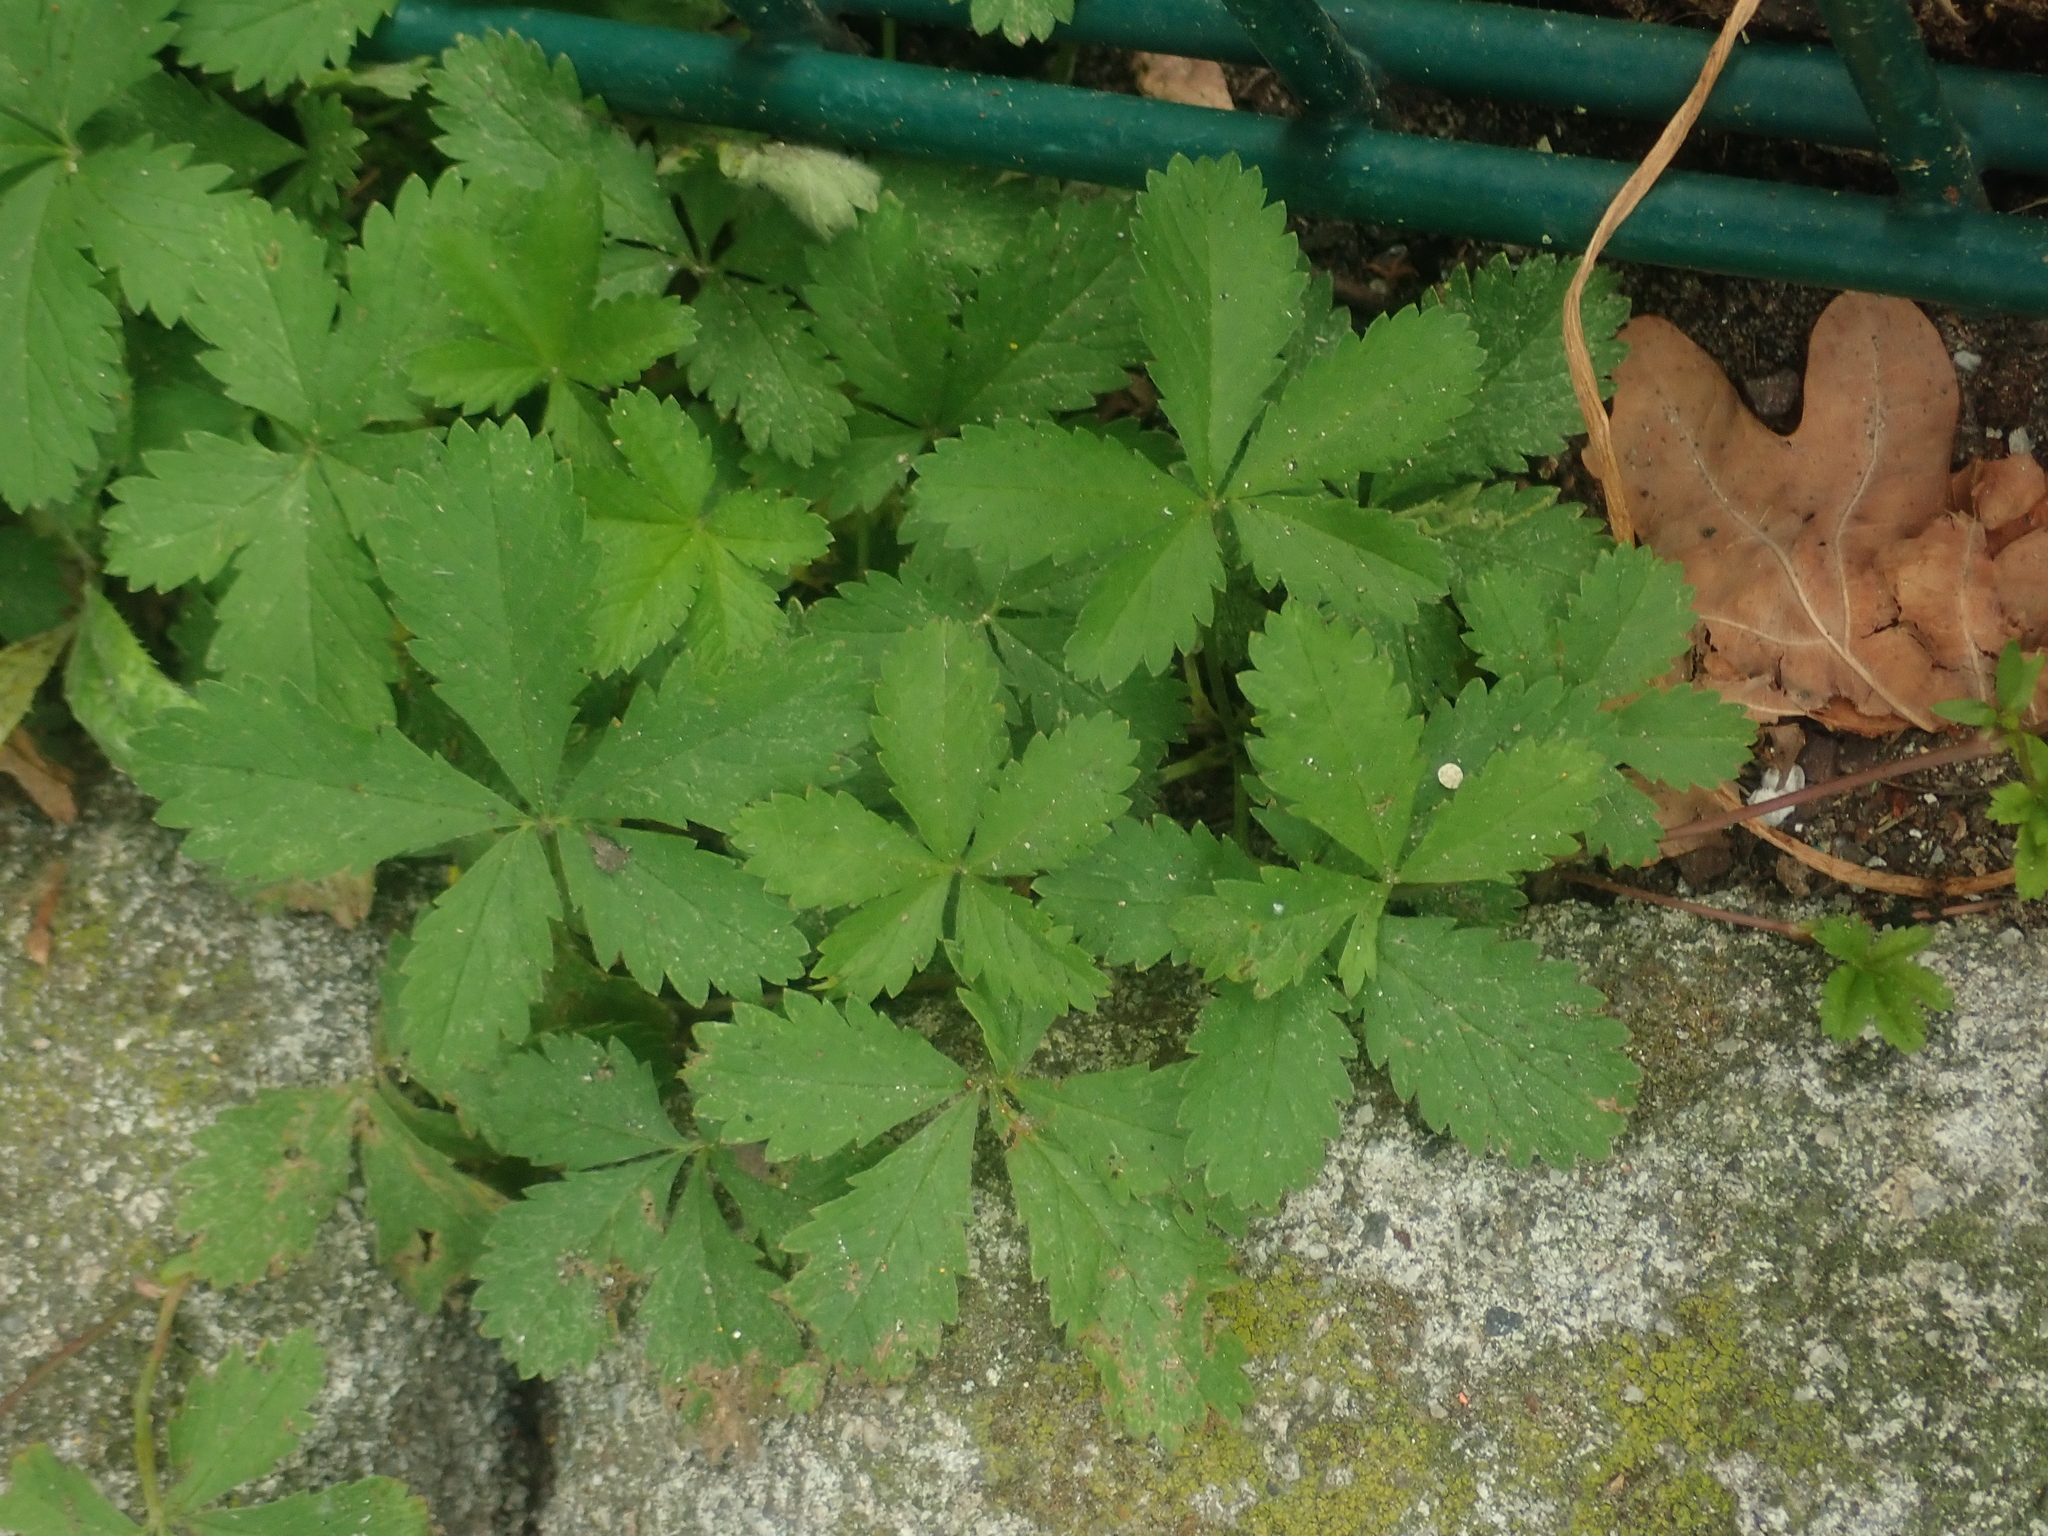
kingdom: Plantae
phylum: Tracheophyta
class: Magnoliopsida
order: Rosales
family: Rosaceae
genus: Potentilla
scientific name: Potentilla reptans
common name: Creeping cinquefoil
